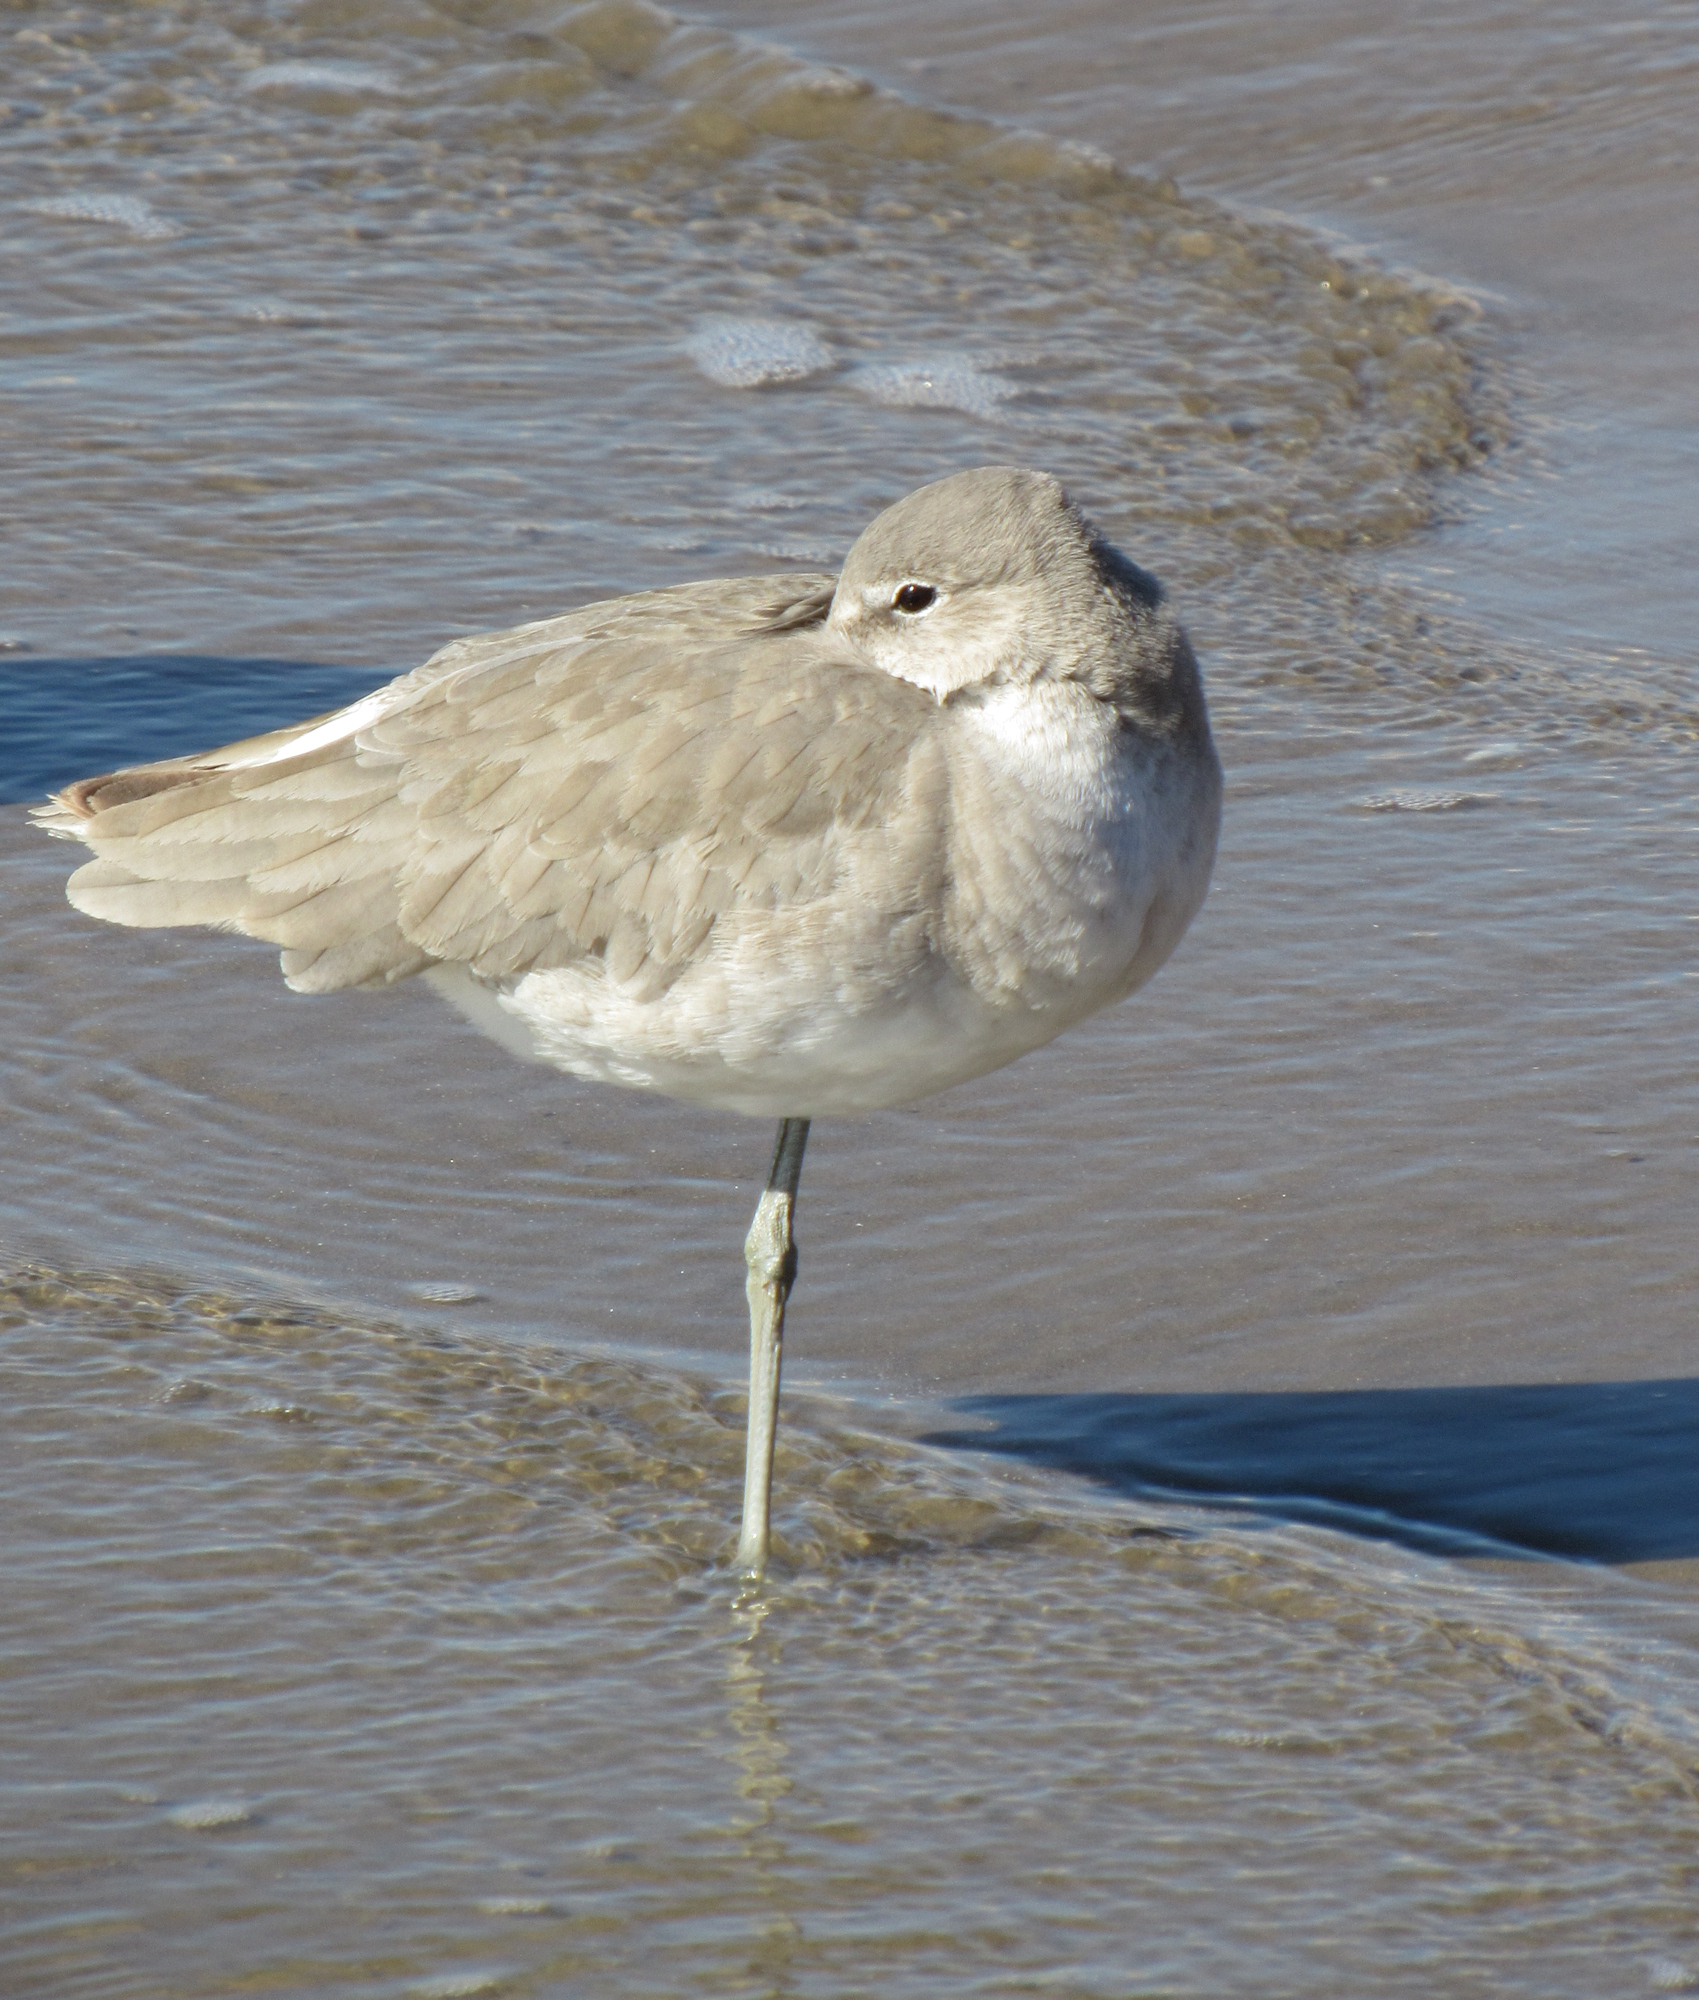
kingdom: Animalia
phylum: Chordata
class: Aves
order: Charadriiformes
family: Scolopacidae
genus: Tringa
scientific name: Tringa semipalmata
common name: Willet
